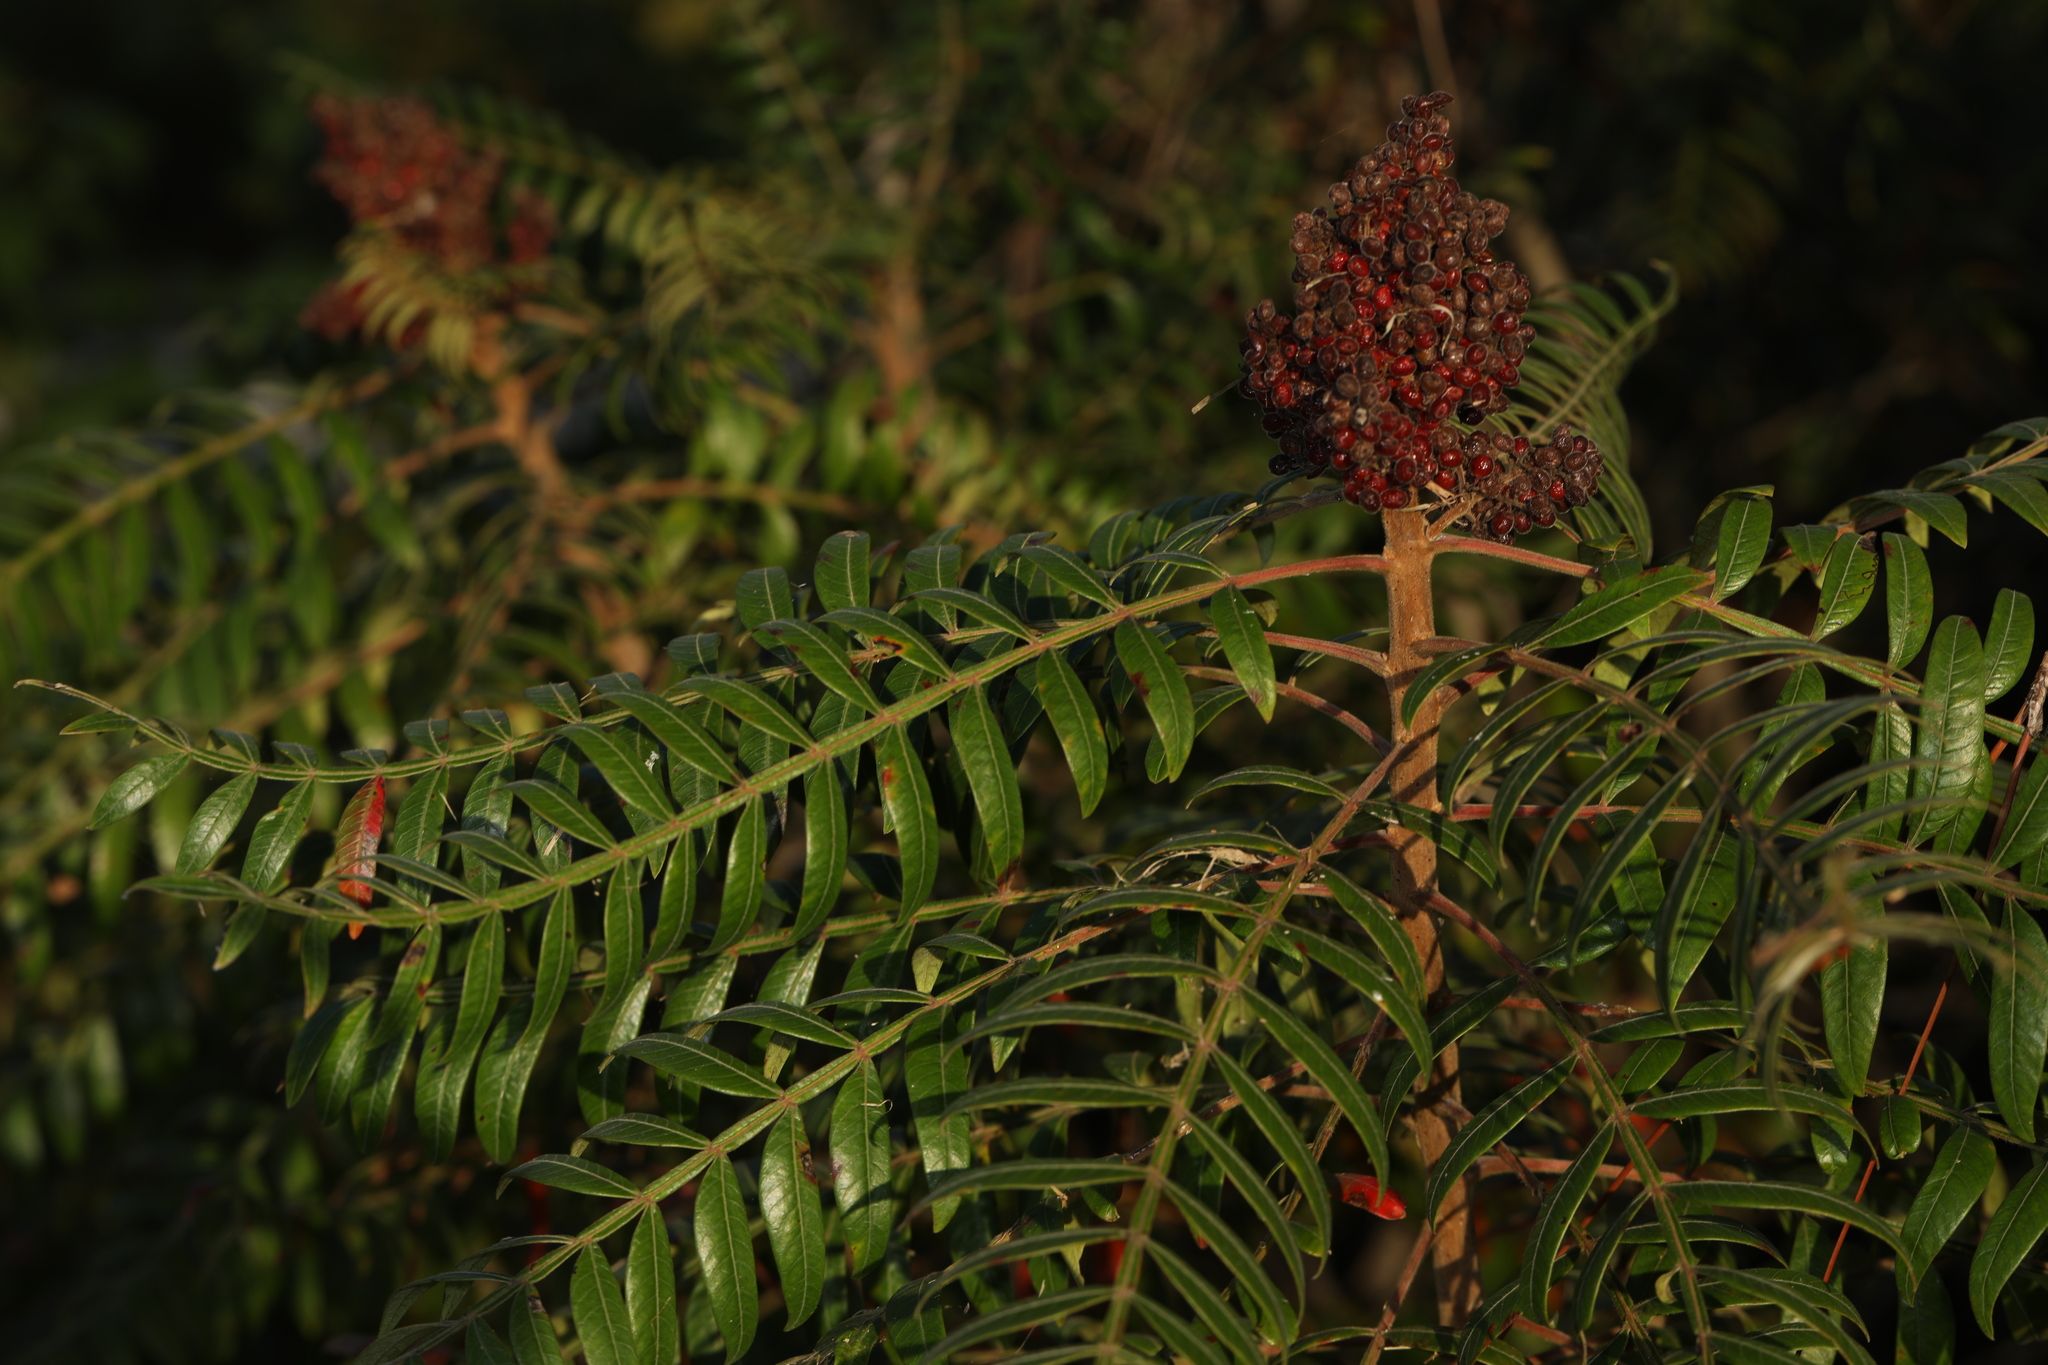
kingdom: Plantae
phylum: Tracheophyta
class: Magnoliopsida
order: Sapindales
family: Anacardiaceae
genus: Rhus
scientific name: Rhus copallina
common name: Shining sumac
